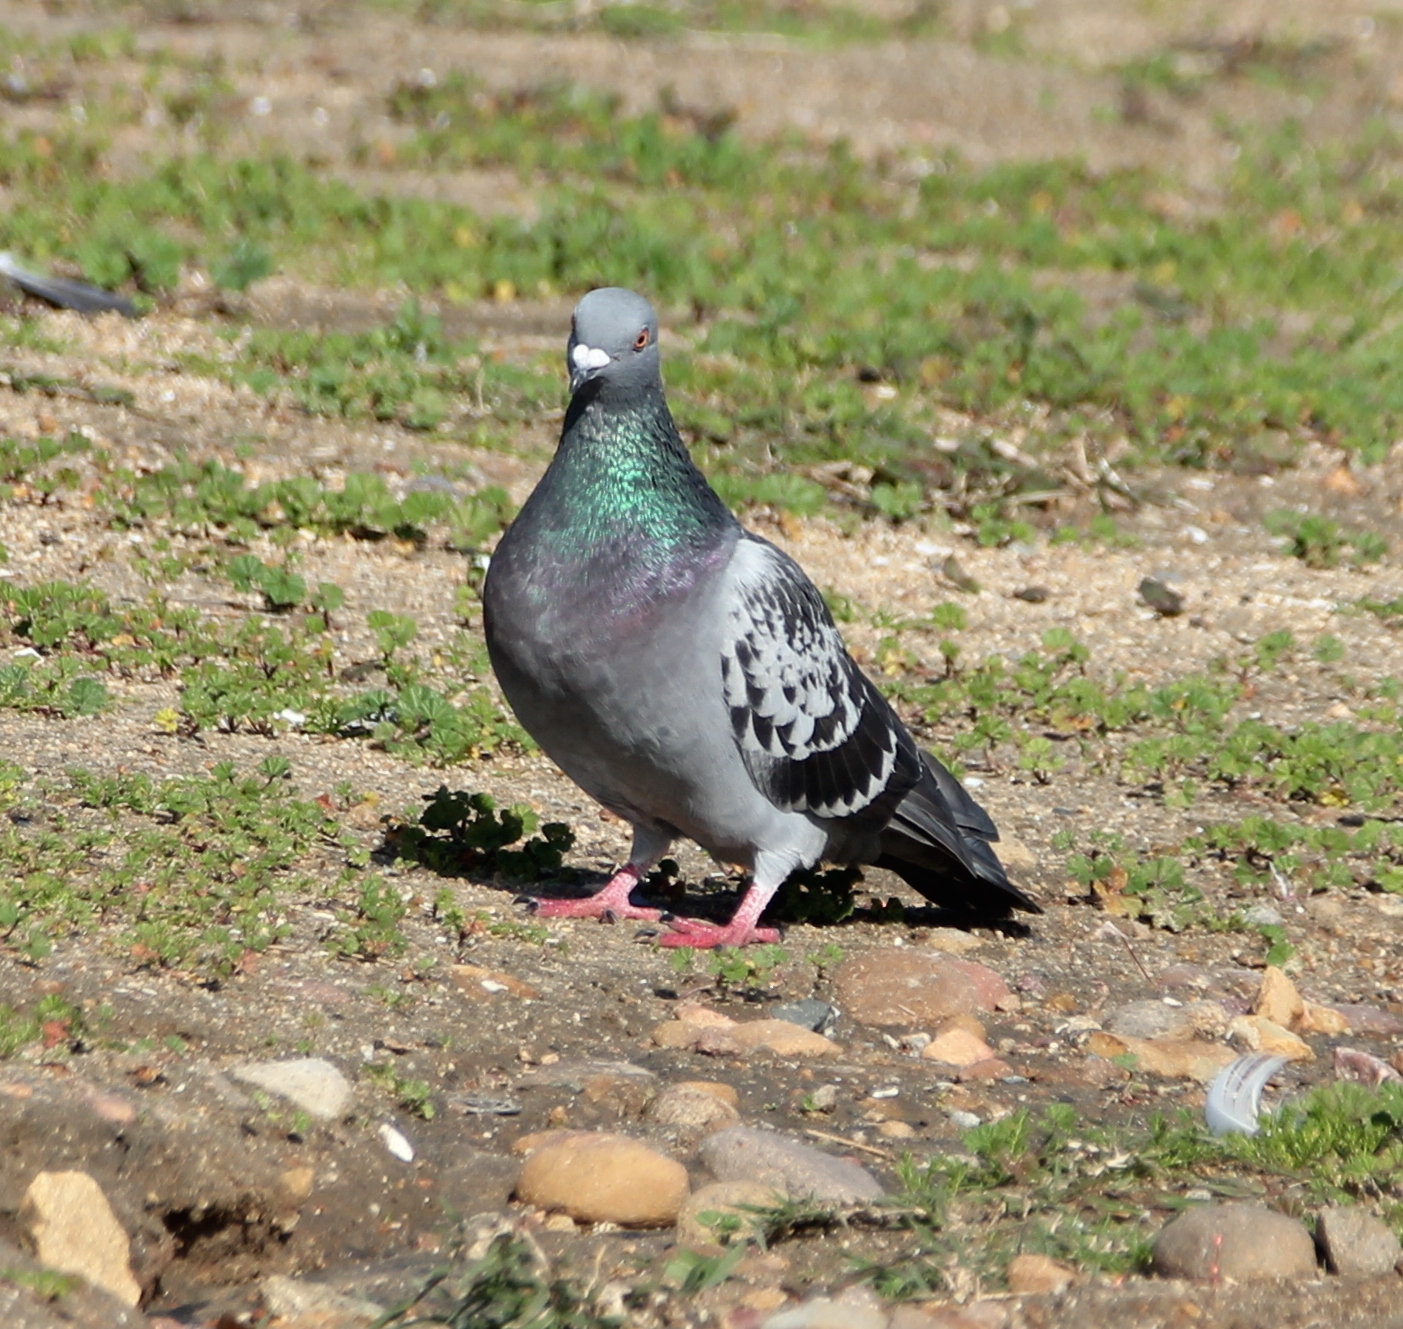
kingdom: Animalia
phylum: Chordata
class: Aves
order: Columbiformes
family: Columbidae
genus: Columba
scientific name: Columba livia
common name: Rock pigeon
